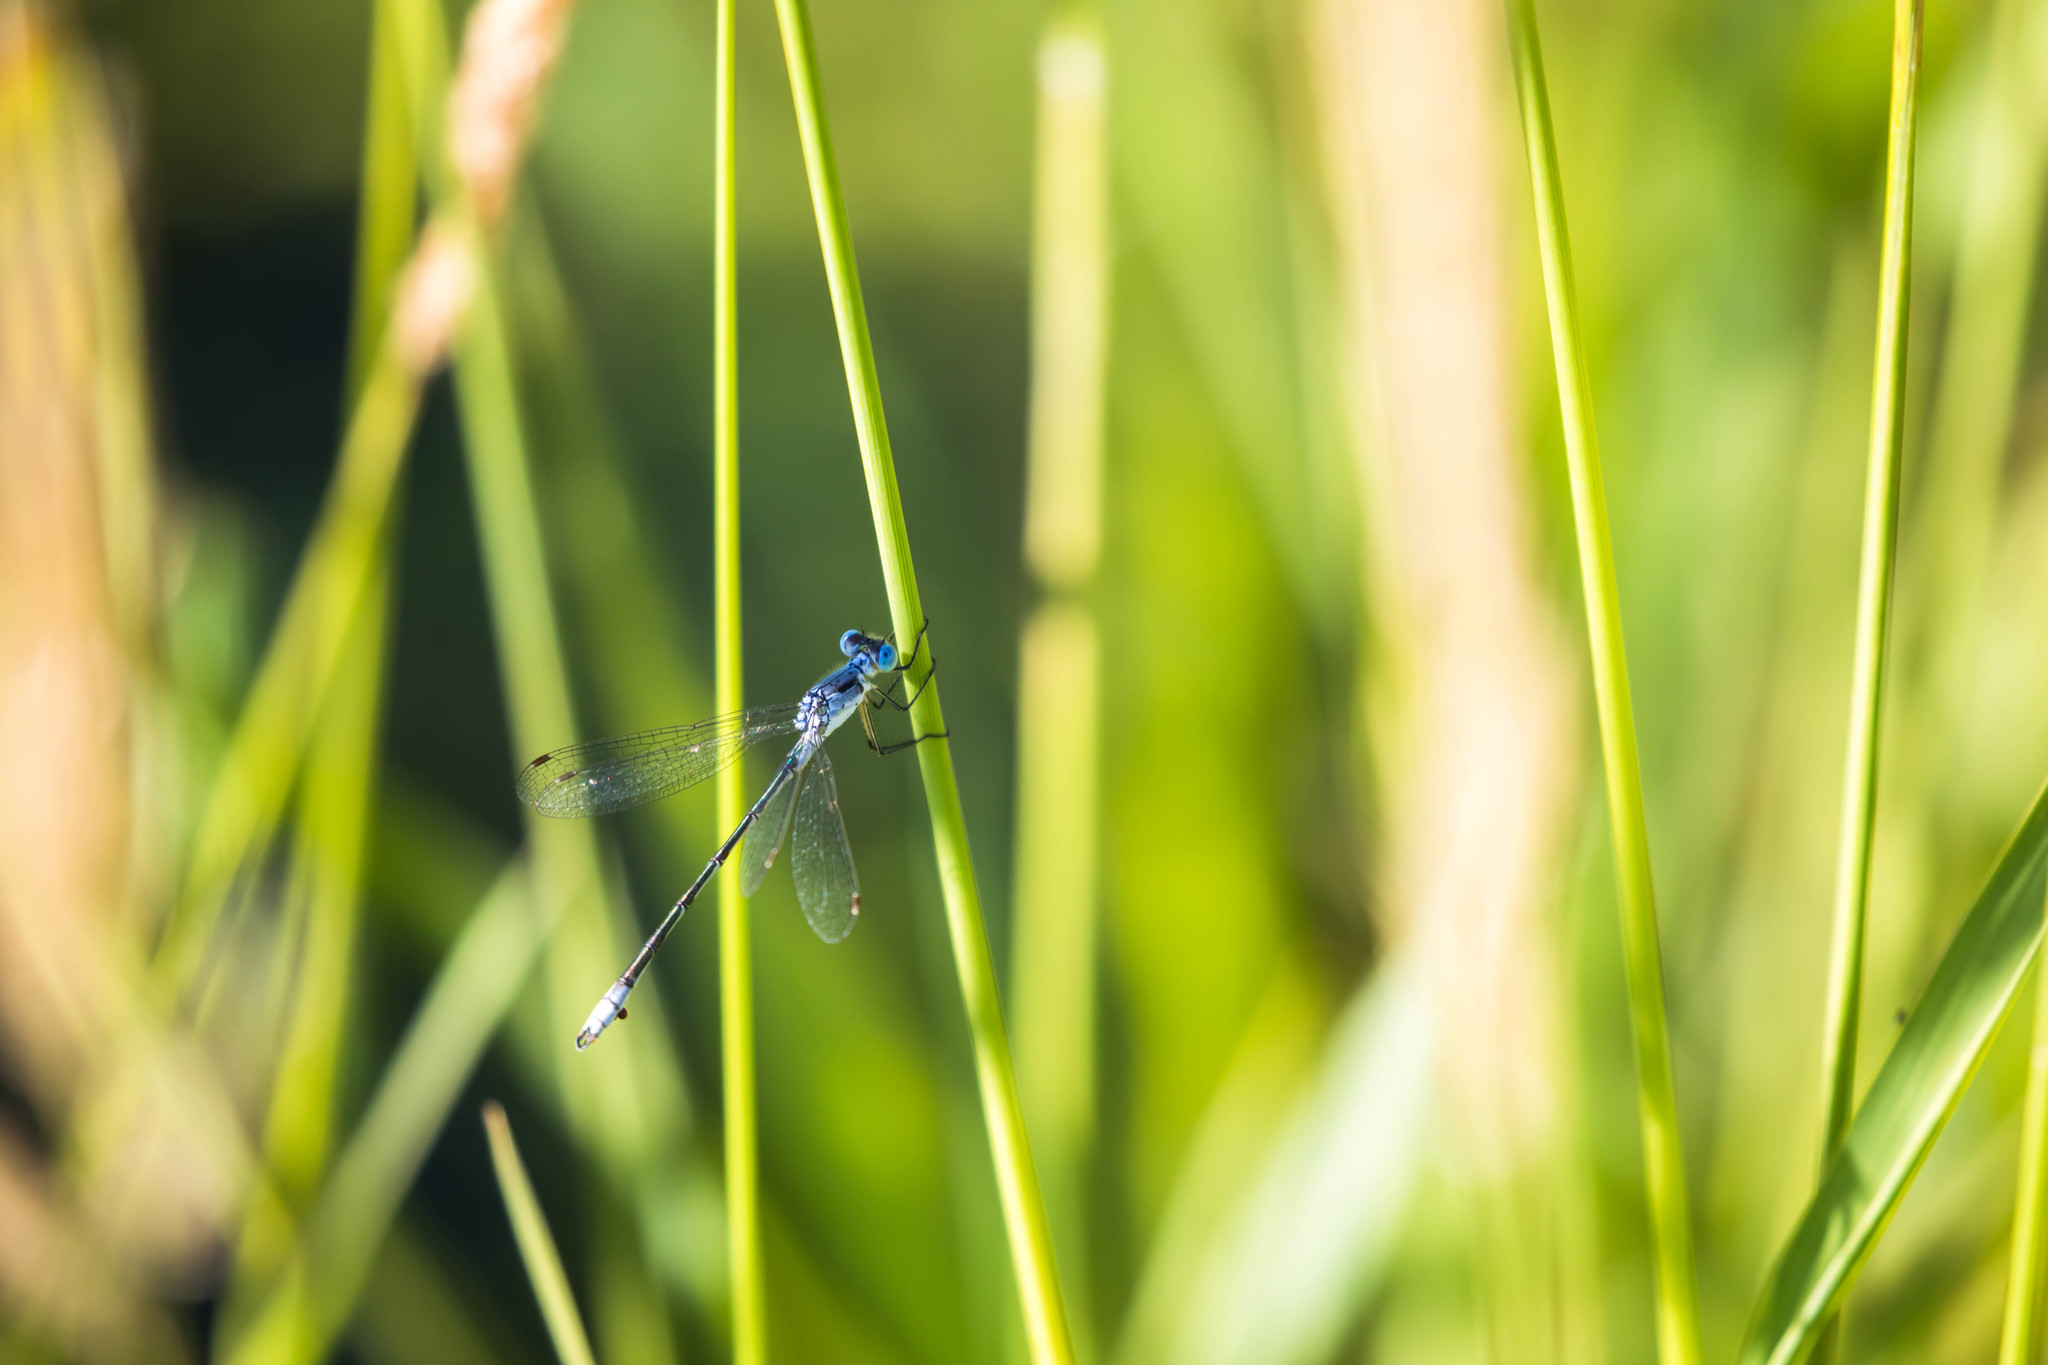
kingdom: Animalia
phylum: Arthropoda
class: Insecta
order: Odonata
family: Lestidae
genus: Lestes
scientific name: Lestes unguiculatus
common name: Lyre-tipped spreadwing
